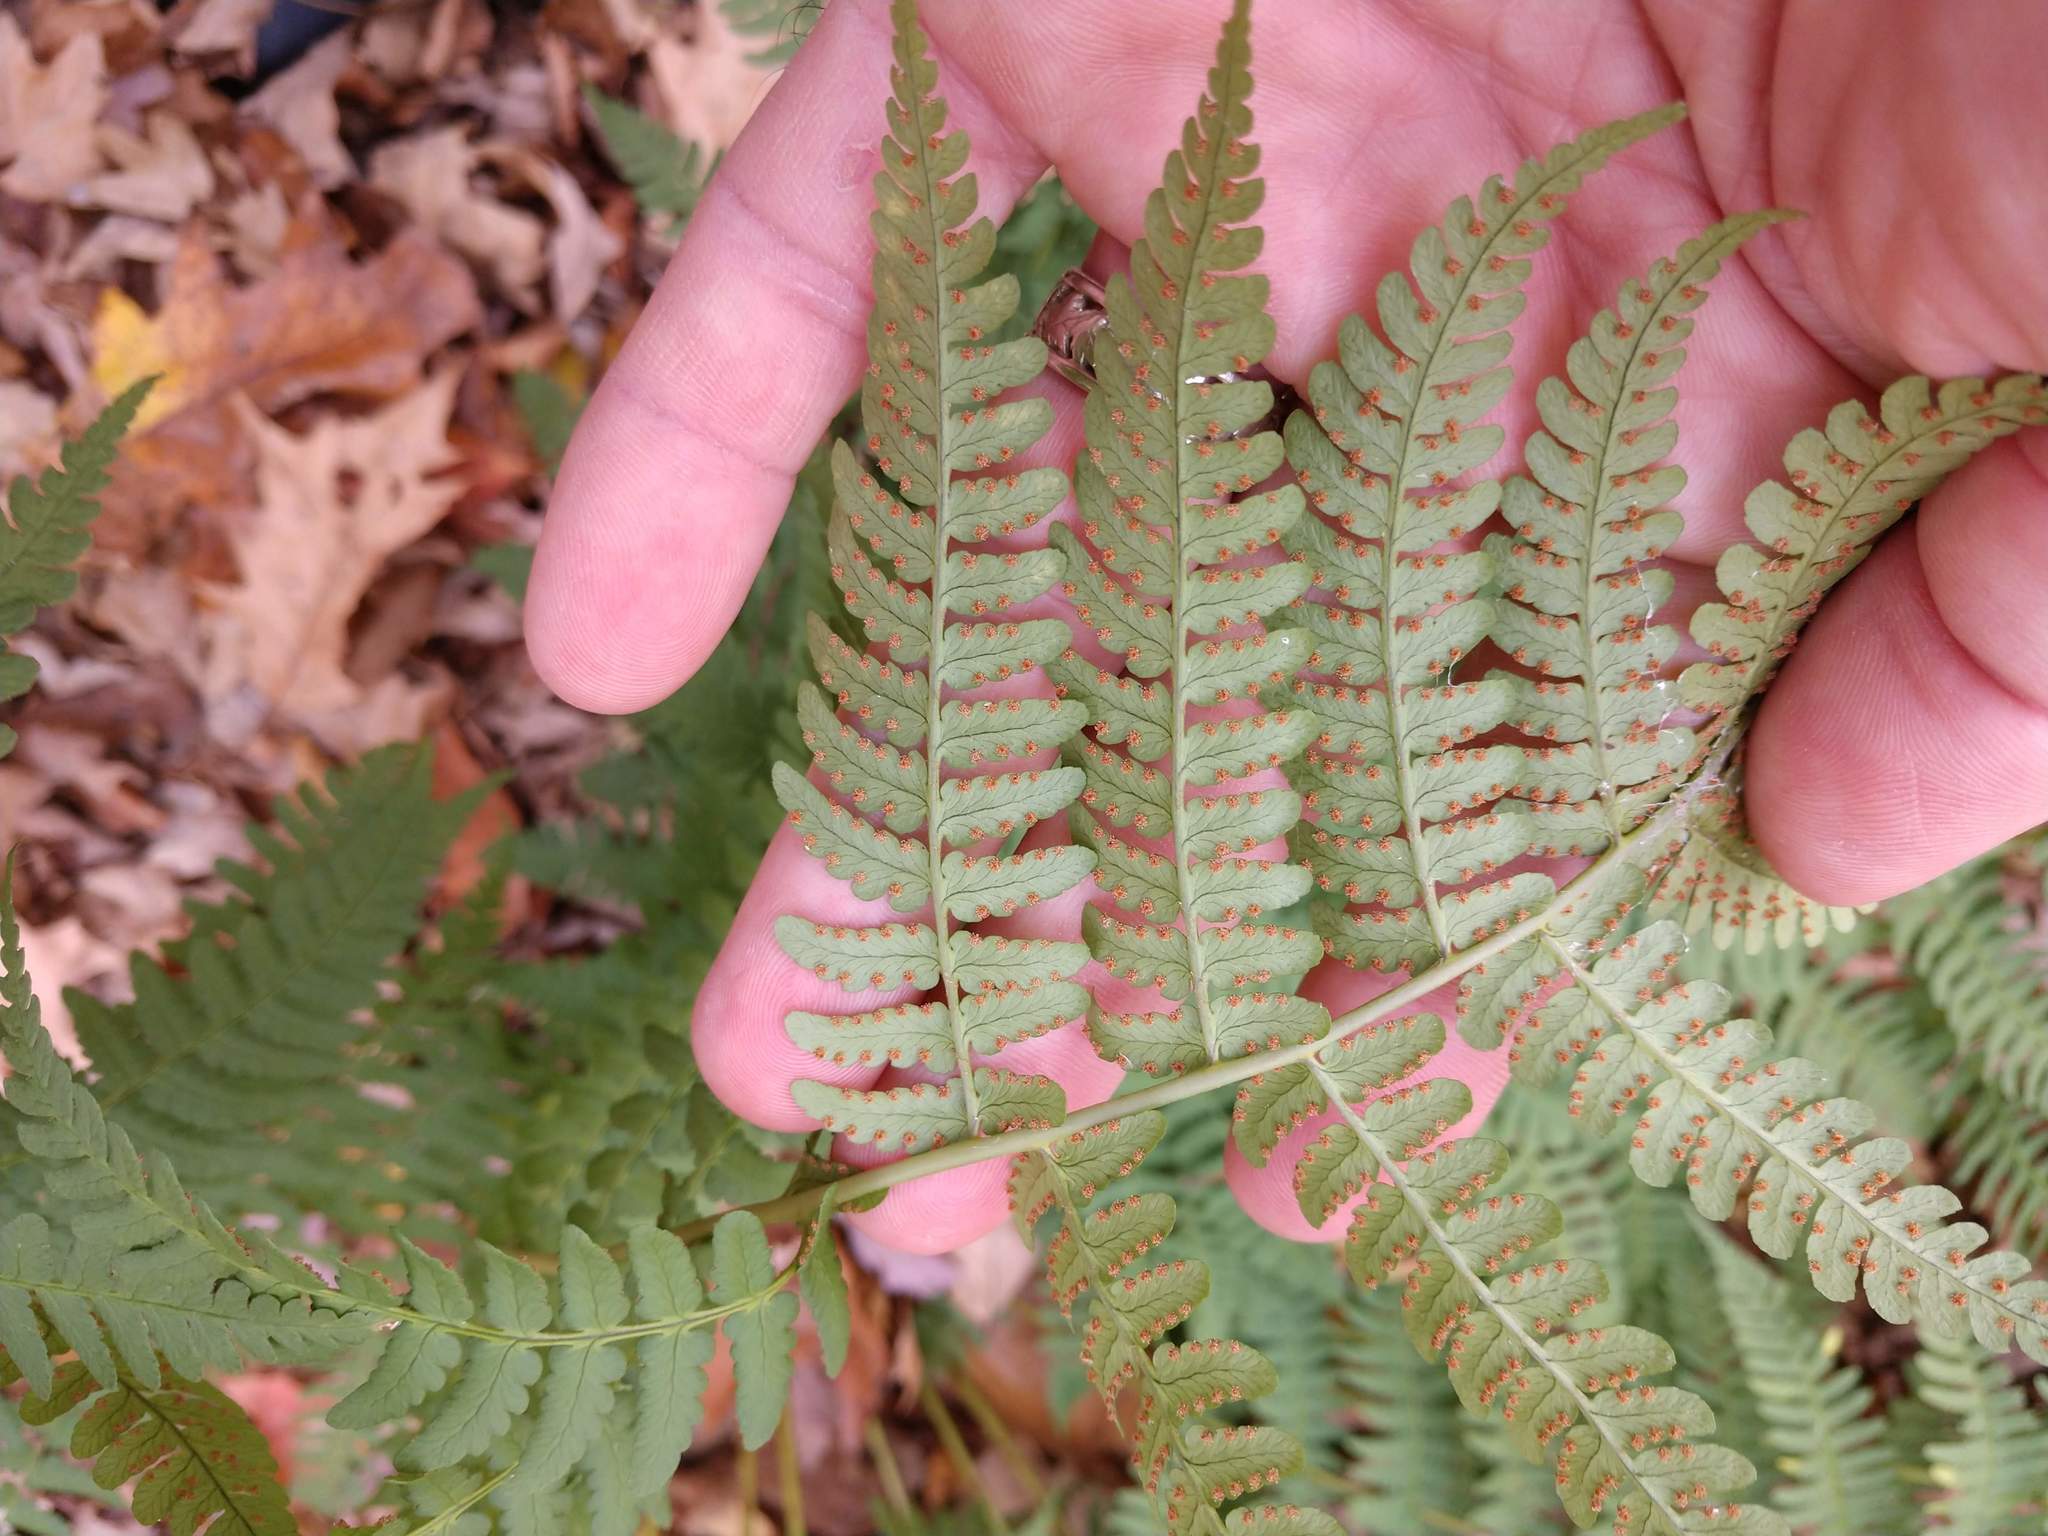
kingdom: Plantae
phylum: Tracheophyta
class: Polypodiopsida
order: Polypodiales
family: Dryopteridaceae
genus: Dryopteris
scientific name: Dryopteris marginalis
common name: Marginal wood fern
